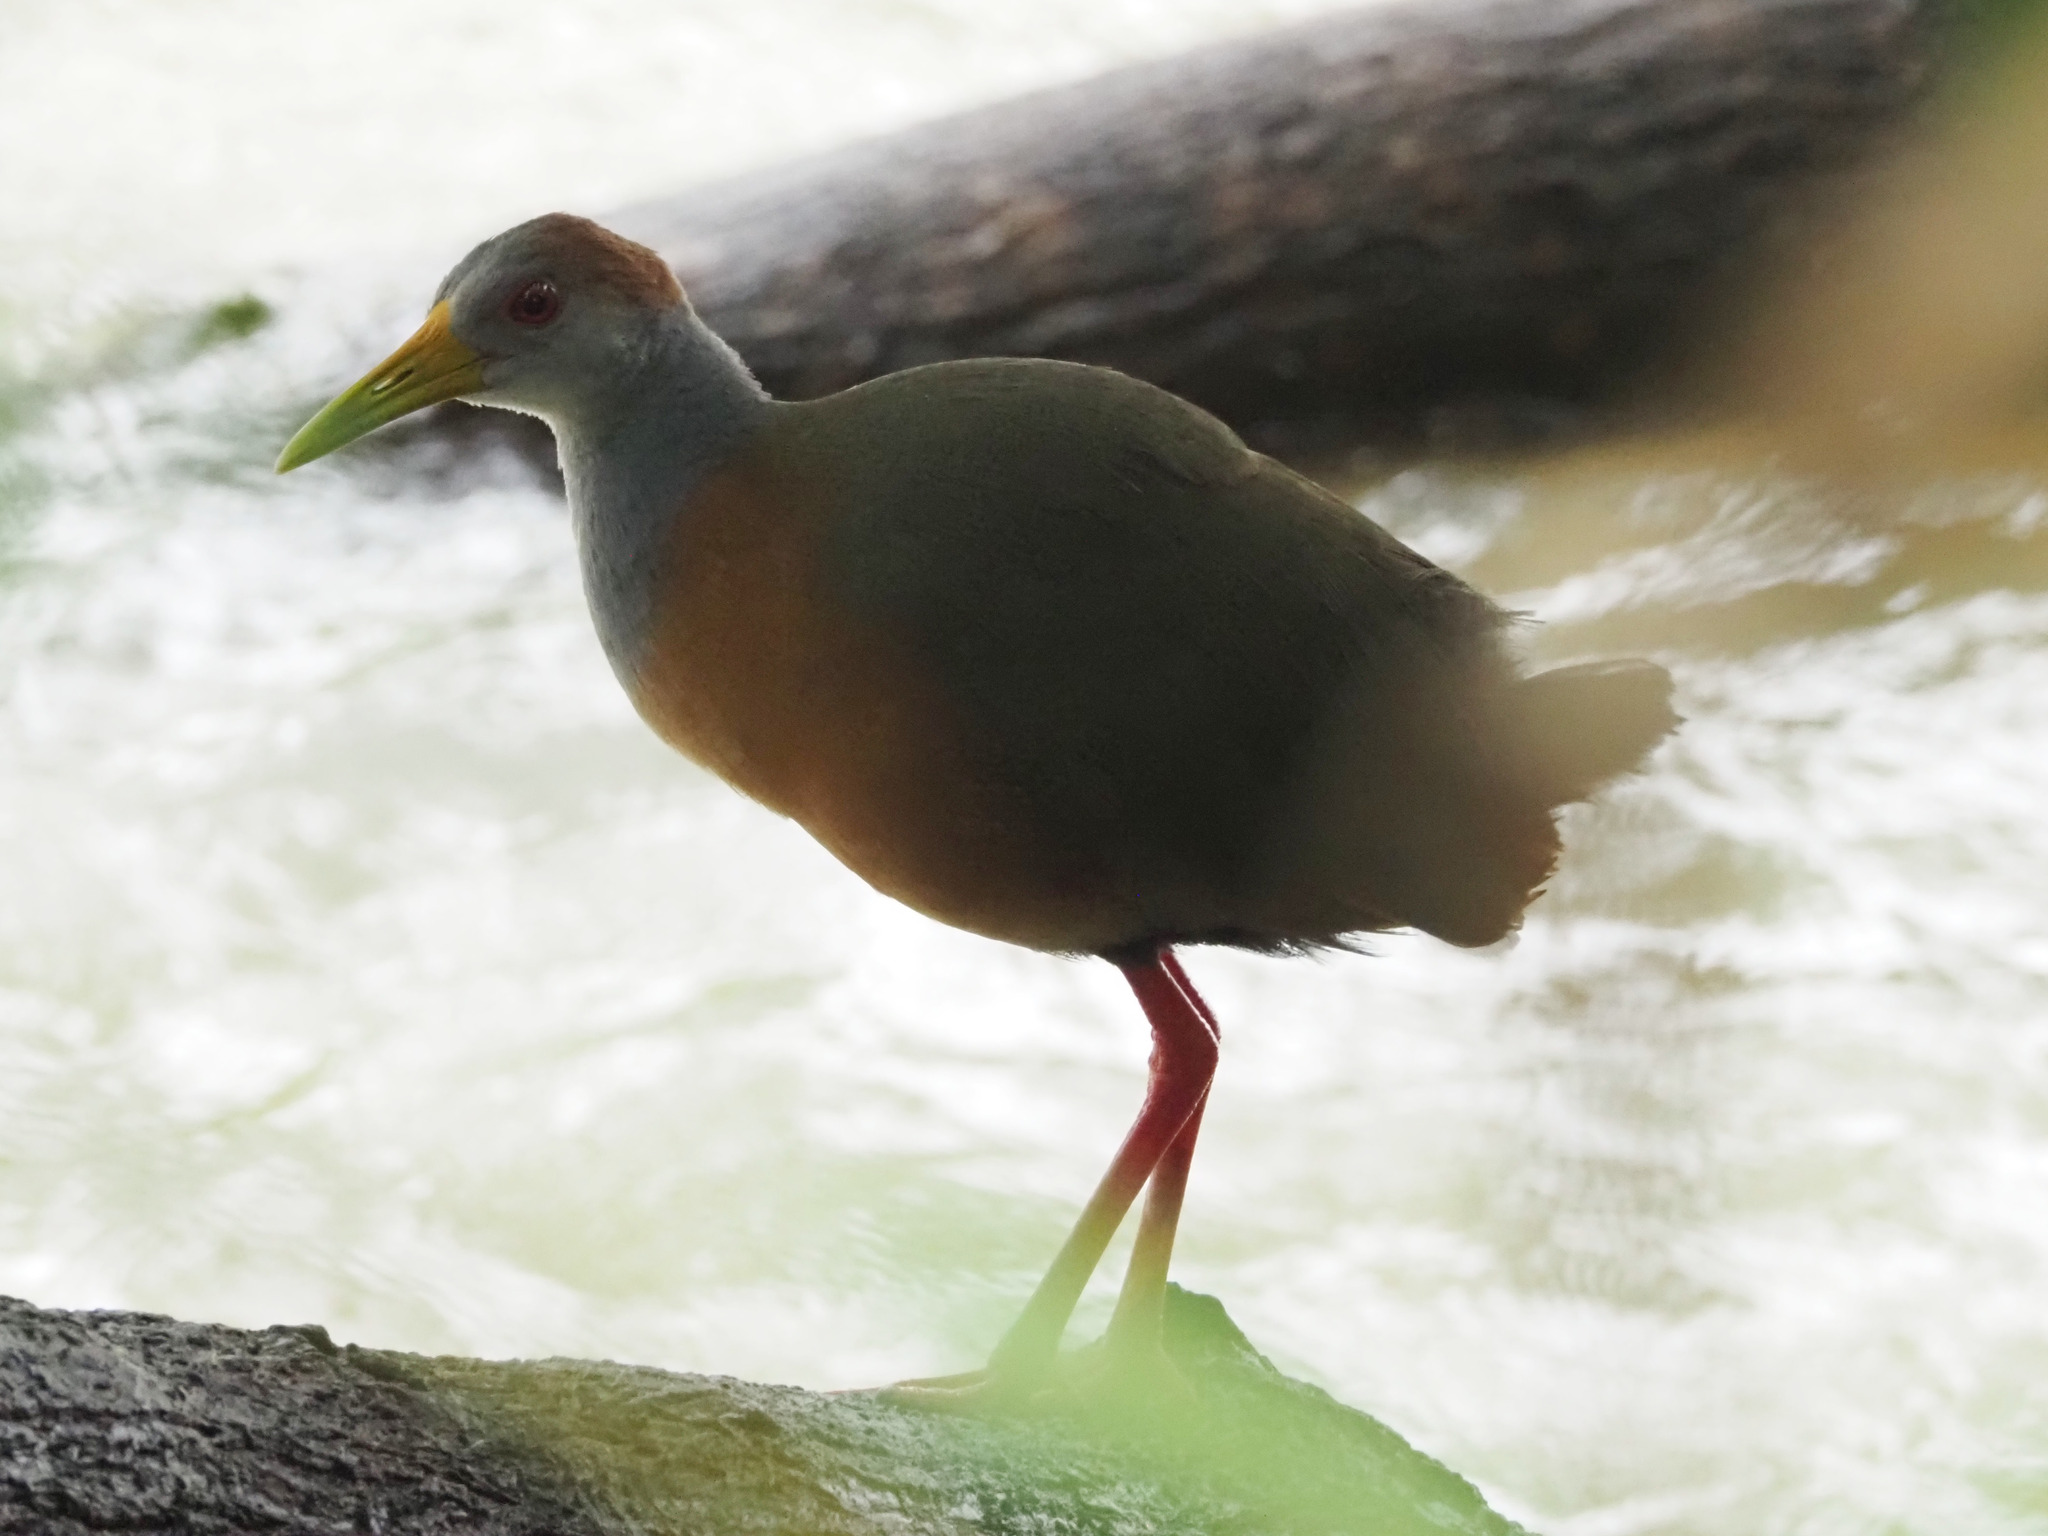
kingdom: Animalia
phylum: Chordata
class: Aves
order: Gruiformes
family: Rallidae
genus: Aramides
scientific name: Aramides albiventris
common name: Russet-naped wood-rail
